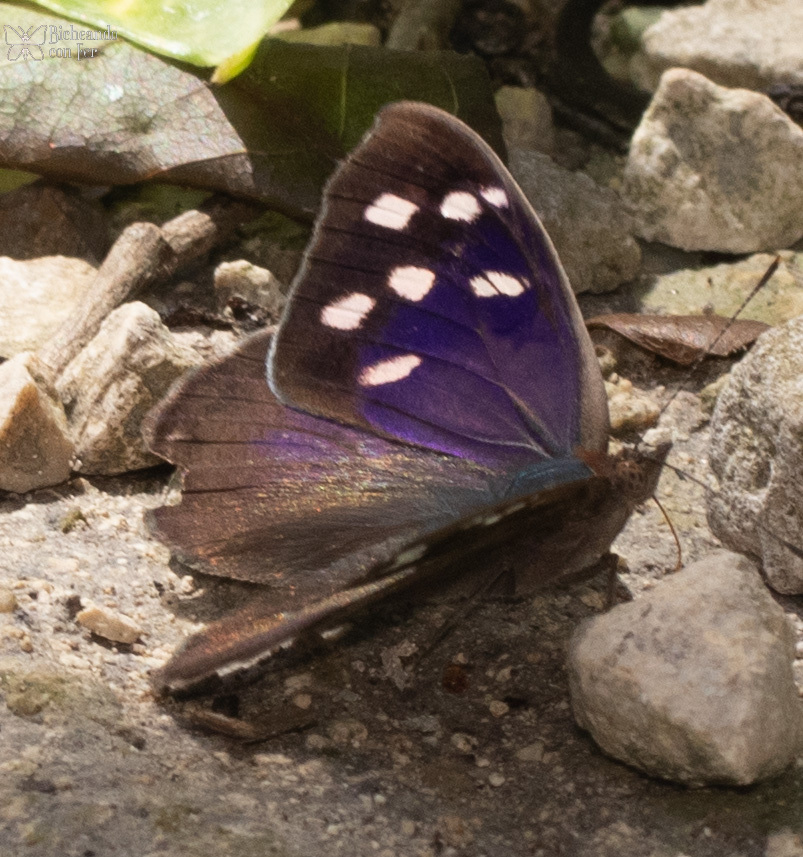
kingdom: Animalia
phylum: Arthropoda
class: Insecta
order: Lepidoptera
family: Nymphalidae
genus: Eunica
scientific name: Eunica tatila
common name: Florida purplewing
